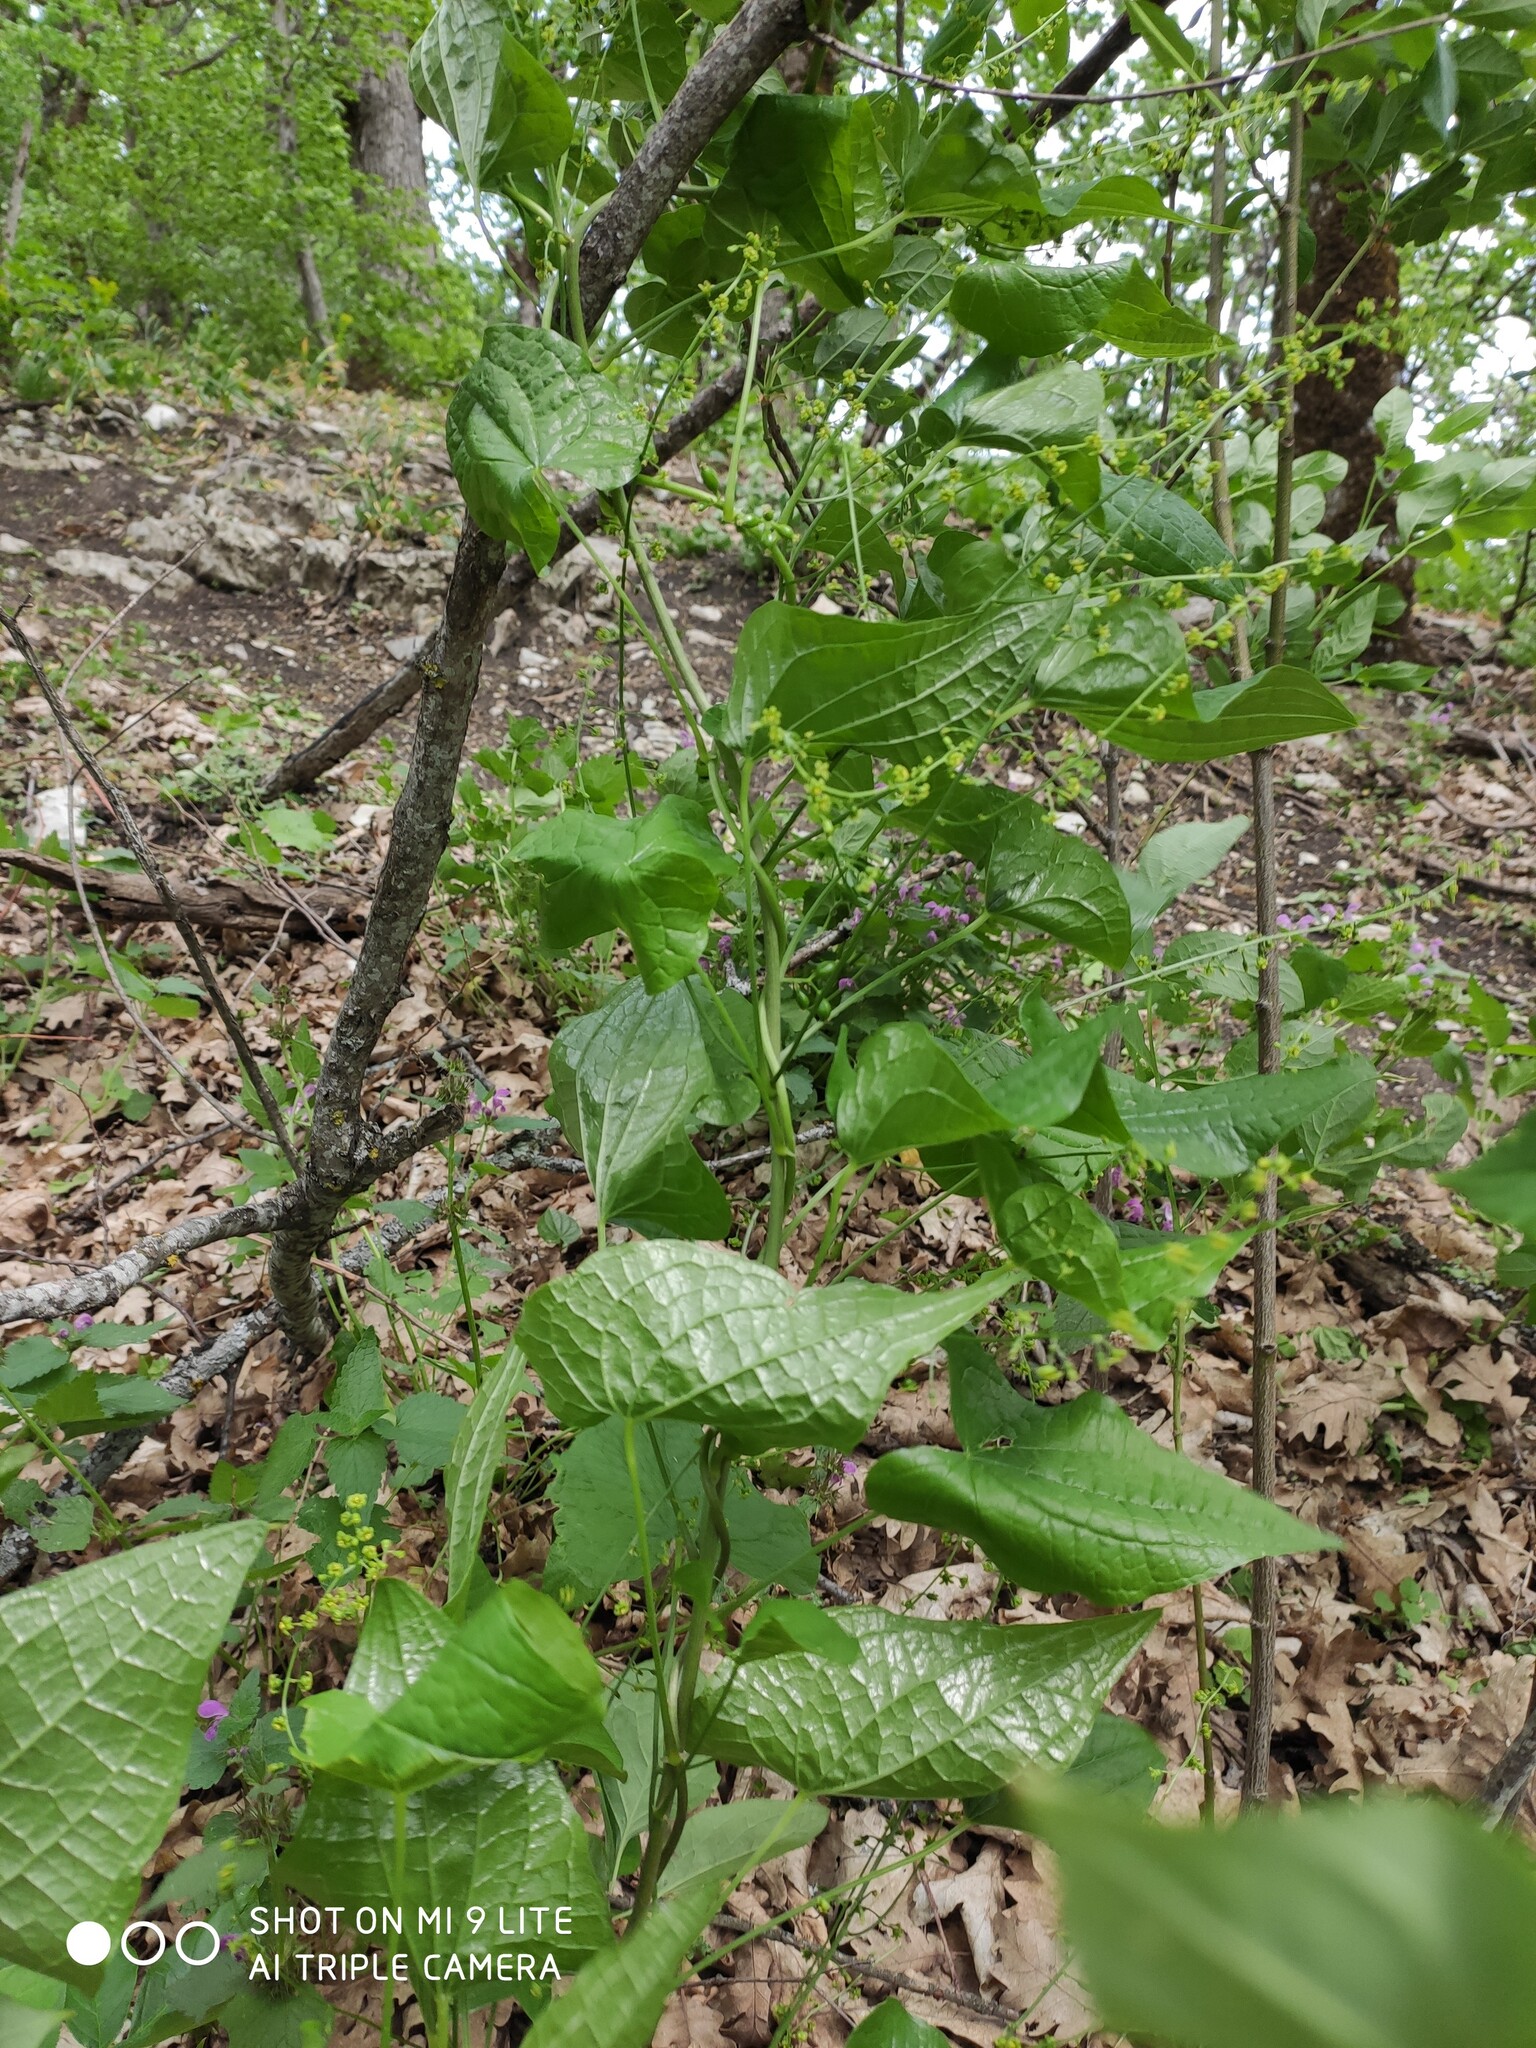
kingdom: Plantae
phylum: Tracheophyta
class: Liliopsida
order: Dioscoreales
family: Dioscoreaceae
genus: Dioscorea
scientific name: Dioscorea communis
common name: Black-bindweed
